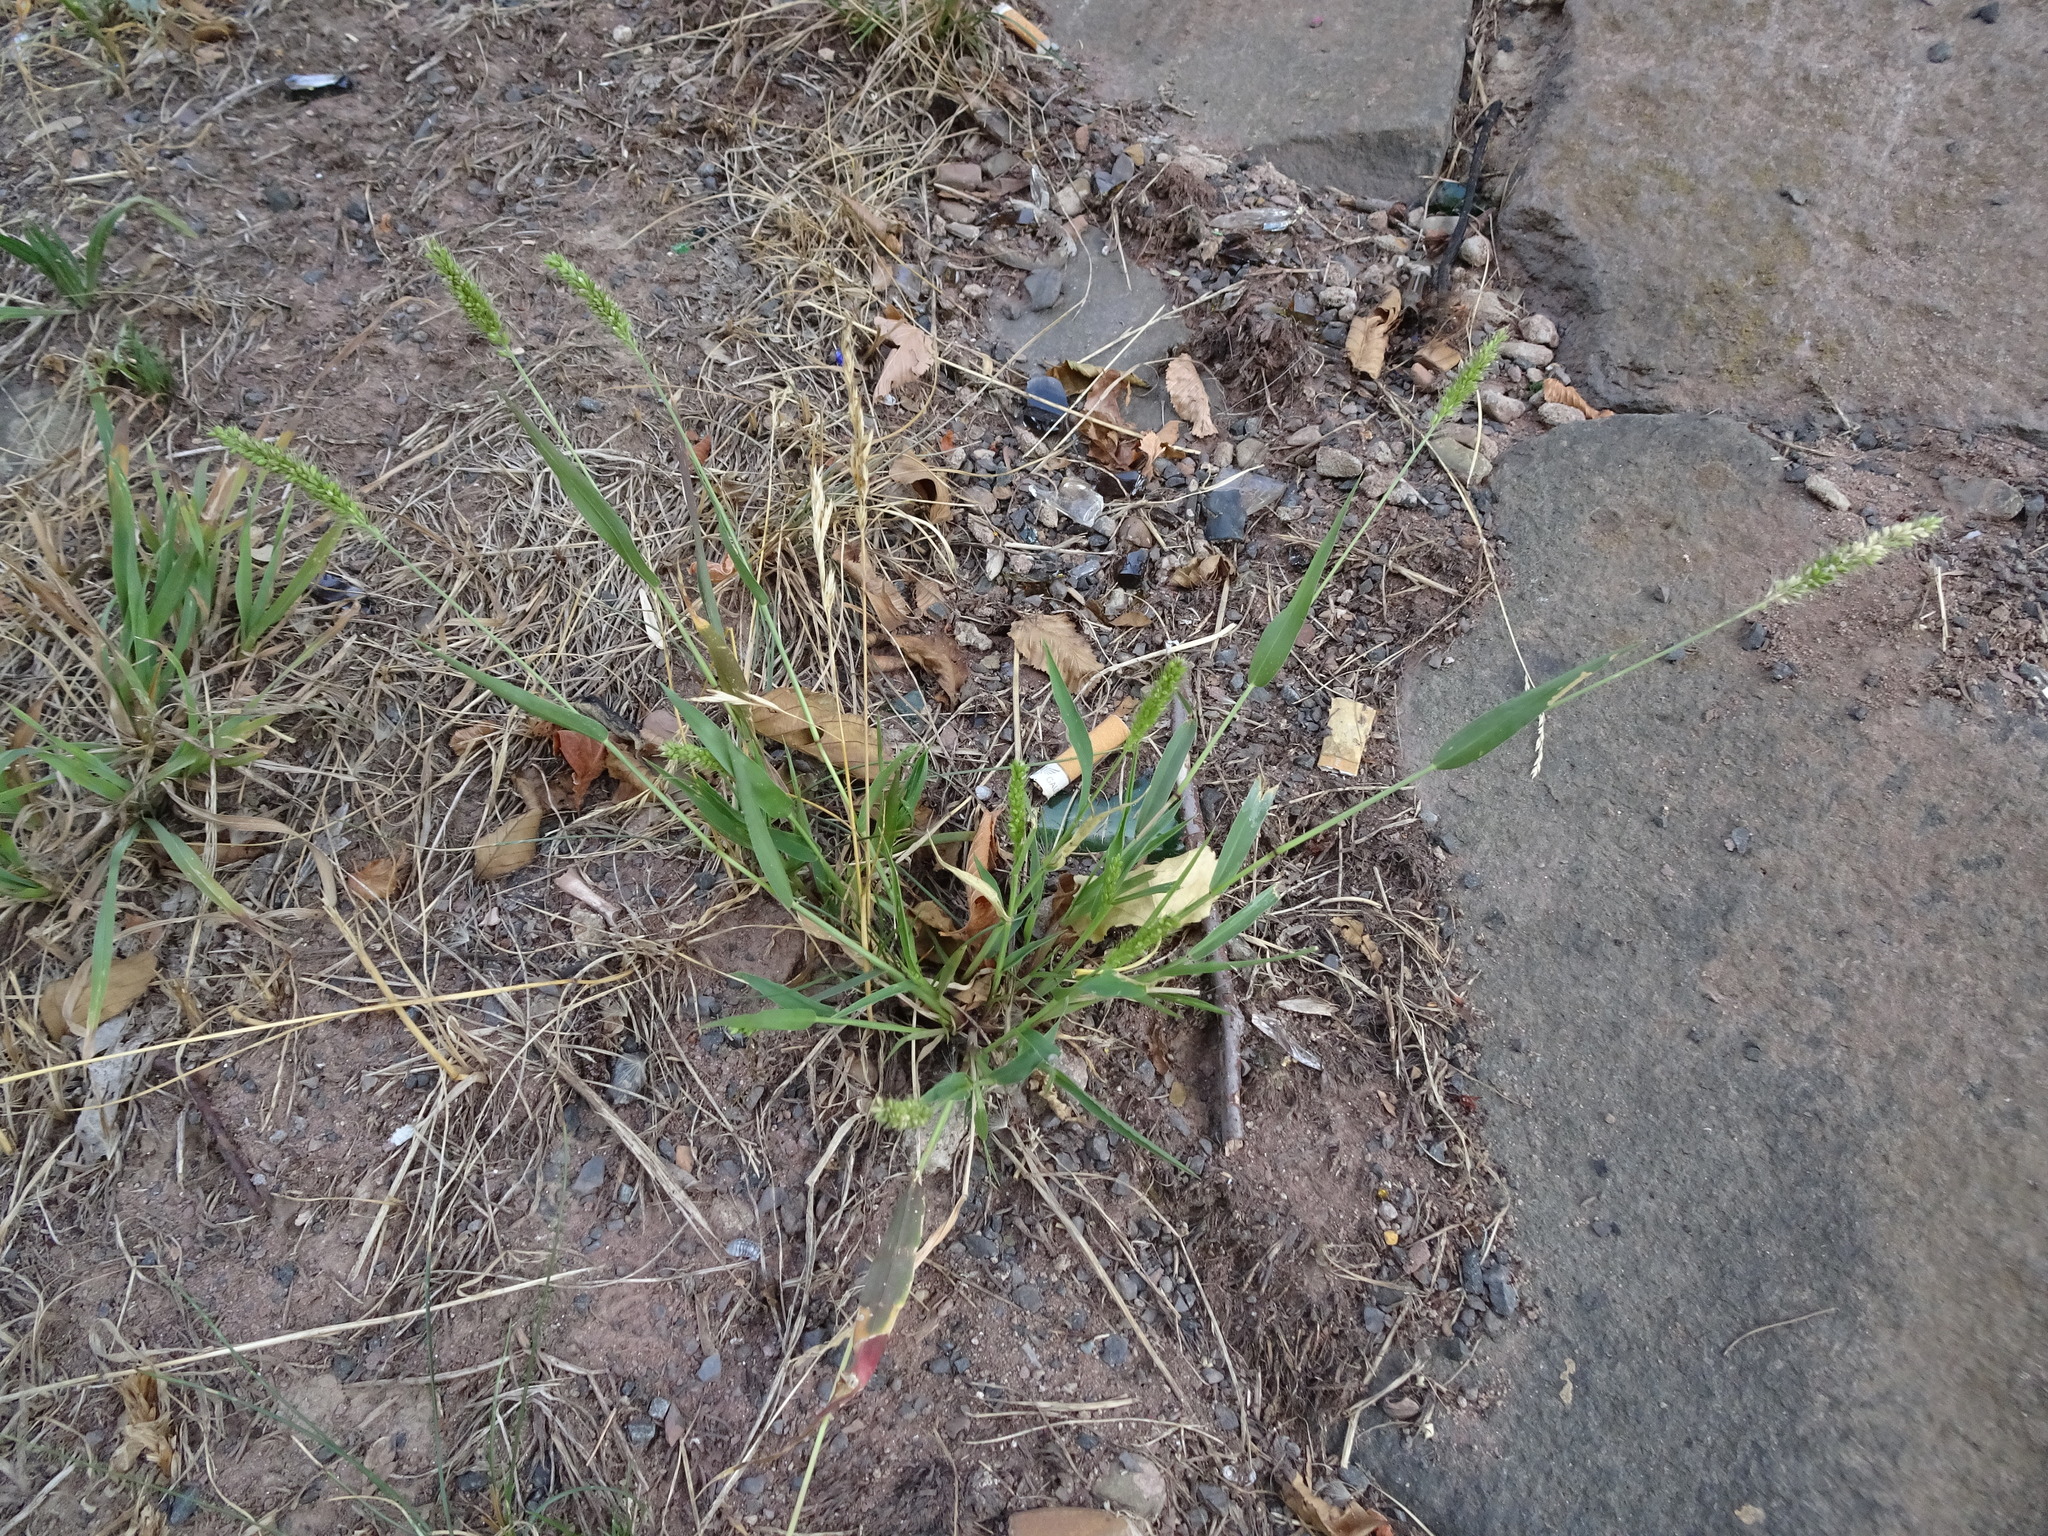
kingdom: Plantae
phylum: Tracheophyta
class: Liliopsida
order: Poales
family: Poaceae
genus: Setaria
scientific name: Setaria viridis
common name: Green bristlegrass
